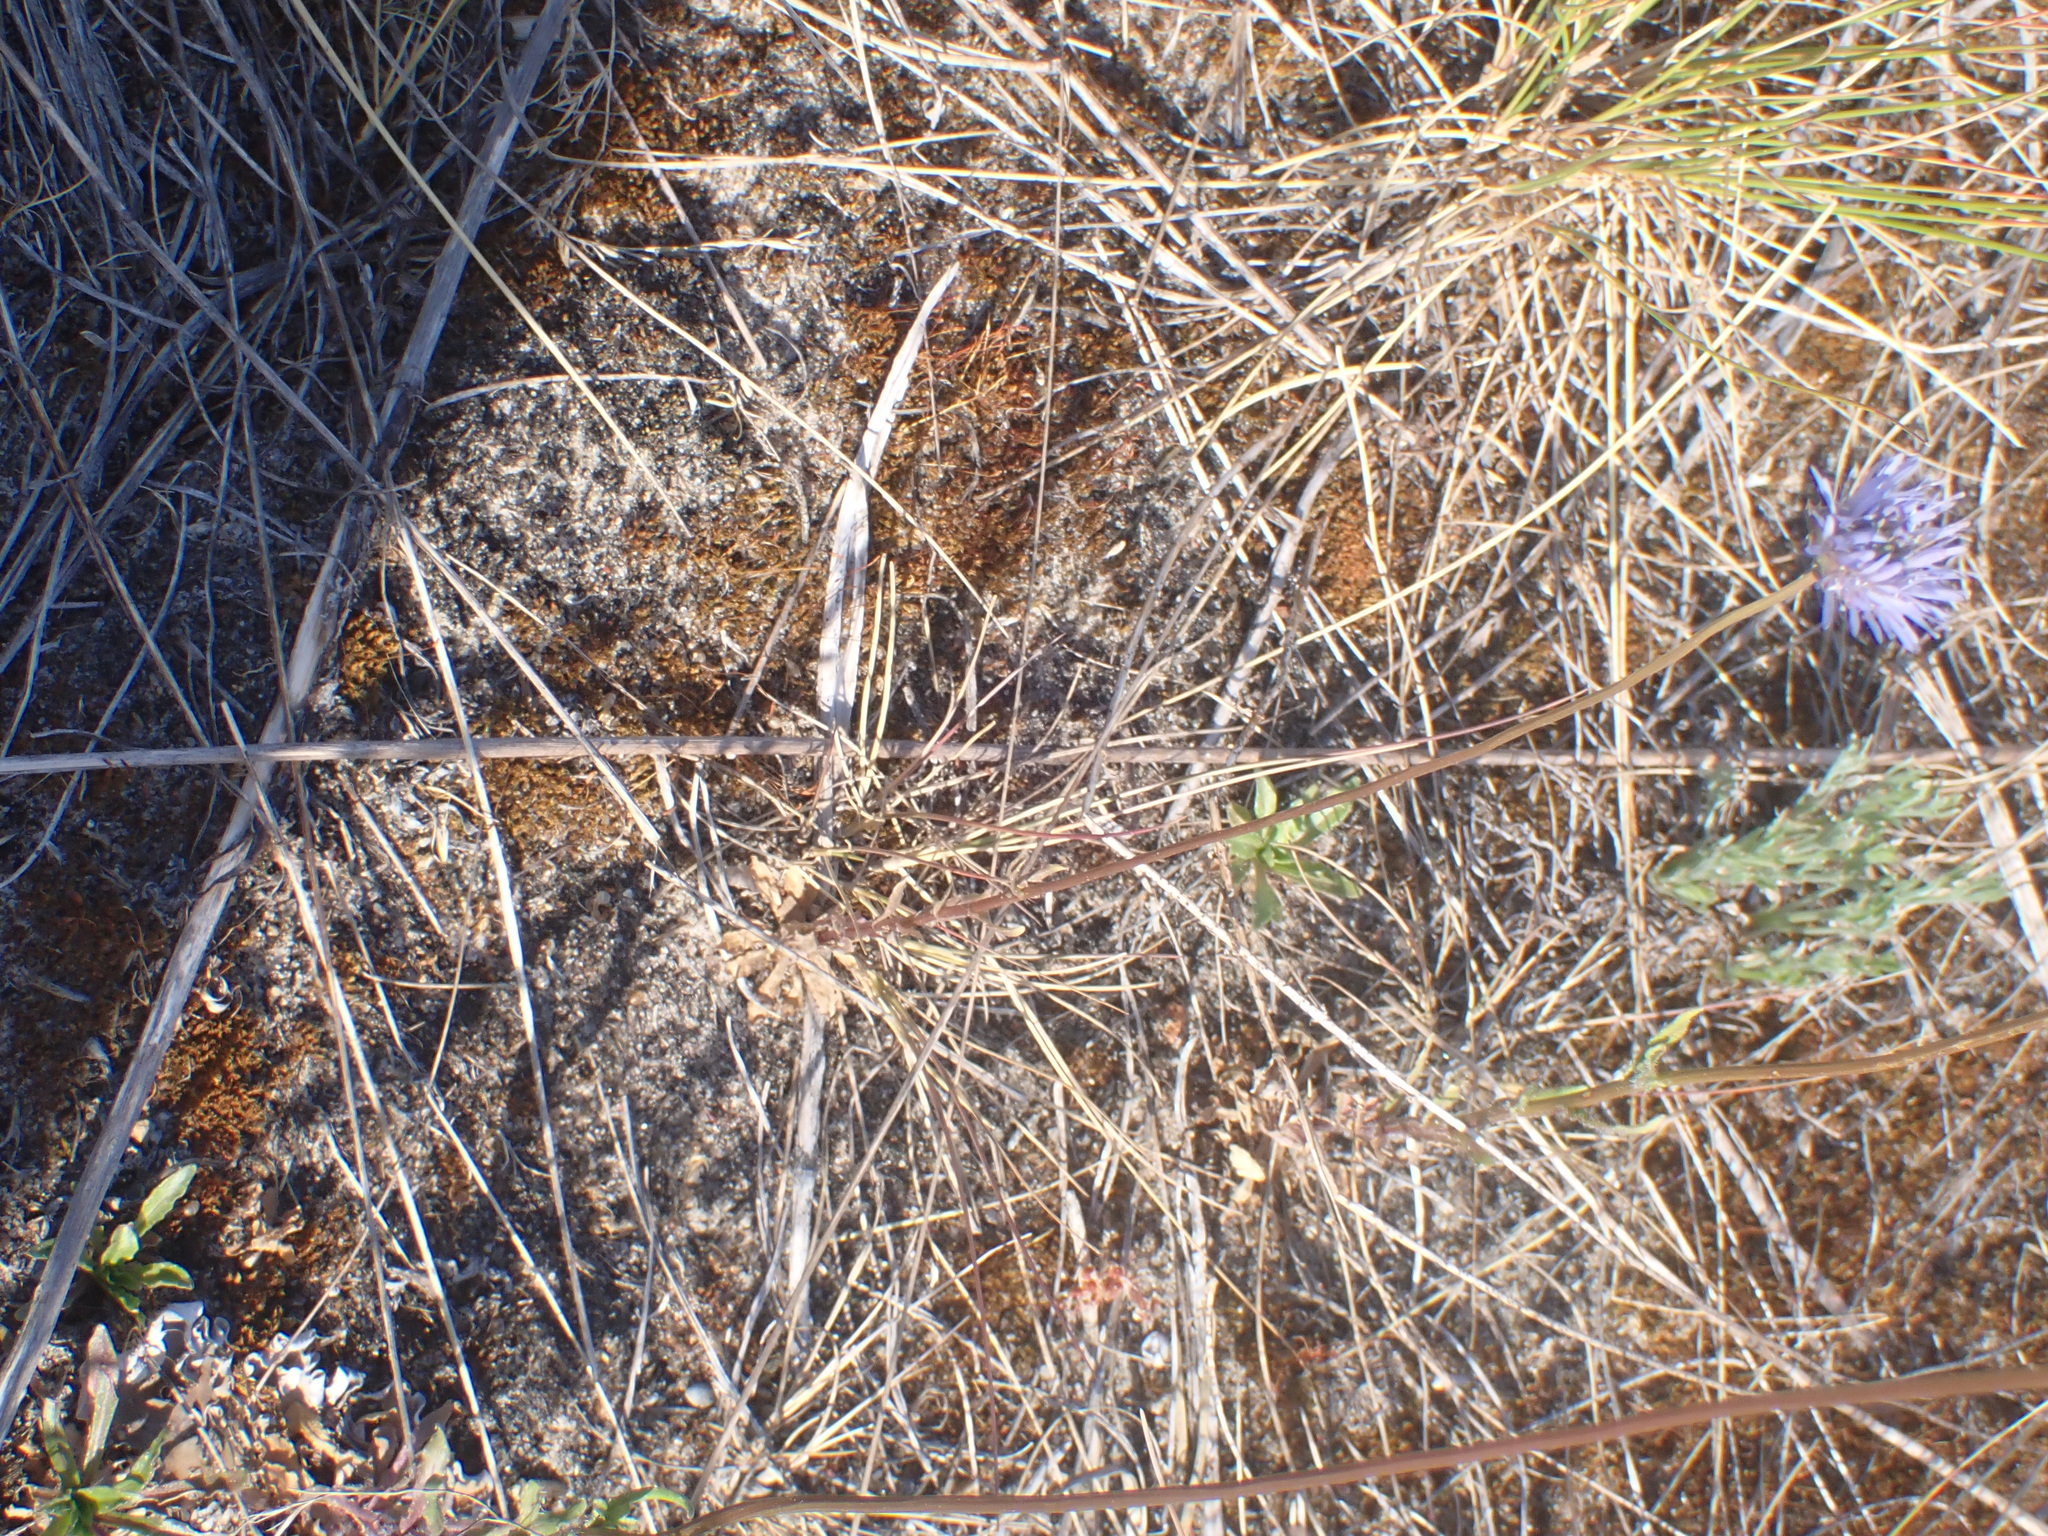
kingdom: Plantae
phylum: Tracheophyta
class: Magnoliopsida
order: Asterales
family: Campanulaceae
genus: Jasione
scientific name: Jasione montana
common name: Sheep's-bit
